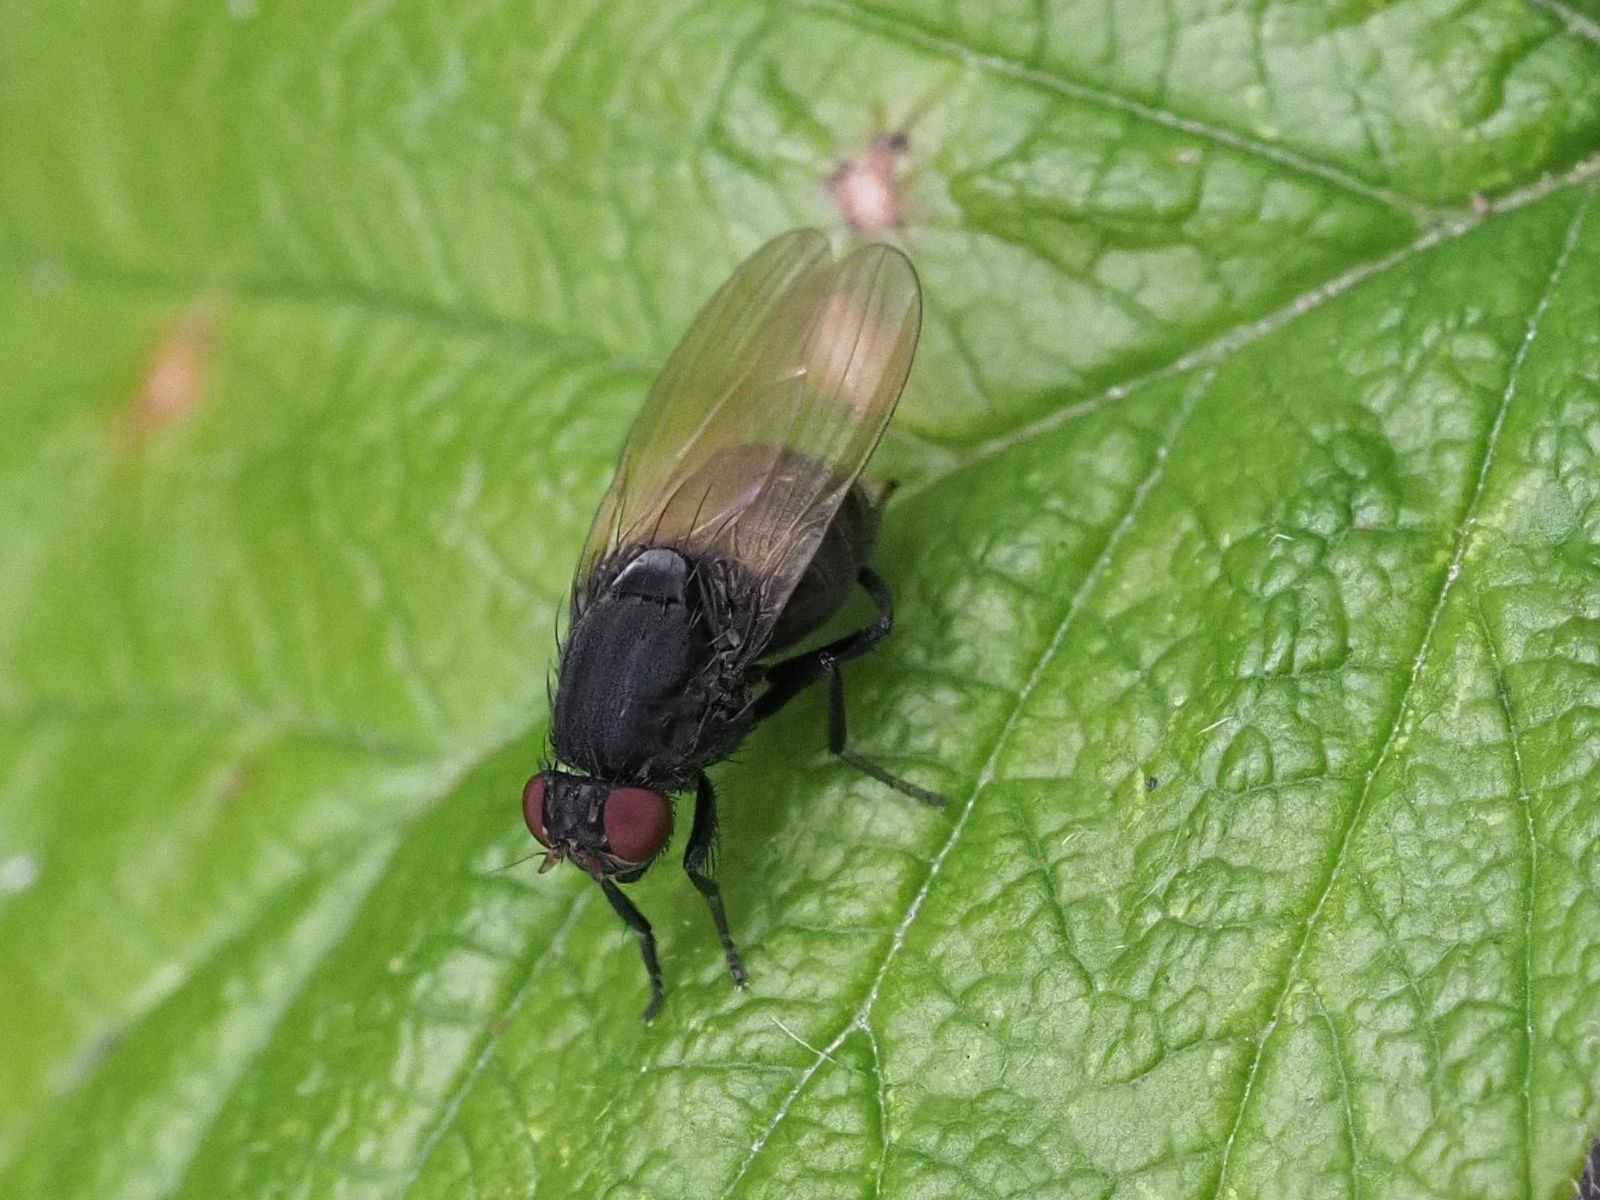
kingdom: Animalia
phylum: Arthropoda
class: Insecta
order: Diptera
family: Lauxaniidae
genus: Minettia
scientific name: Minettia longipennis
